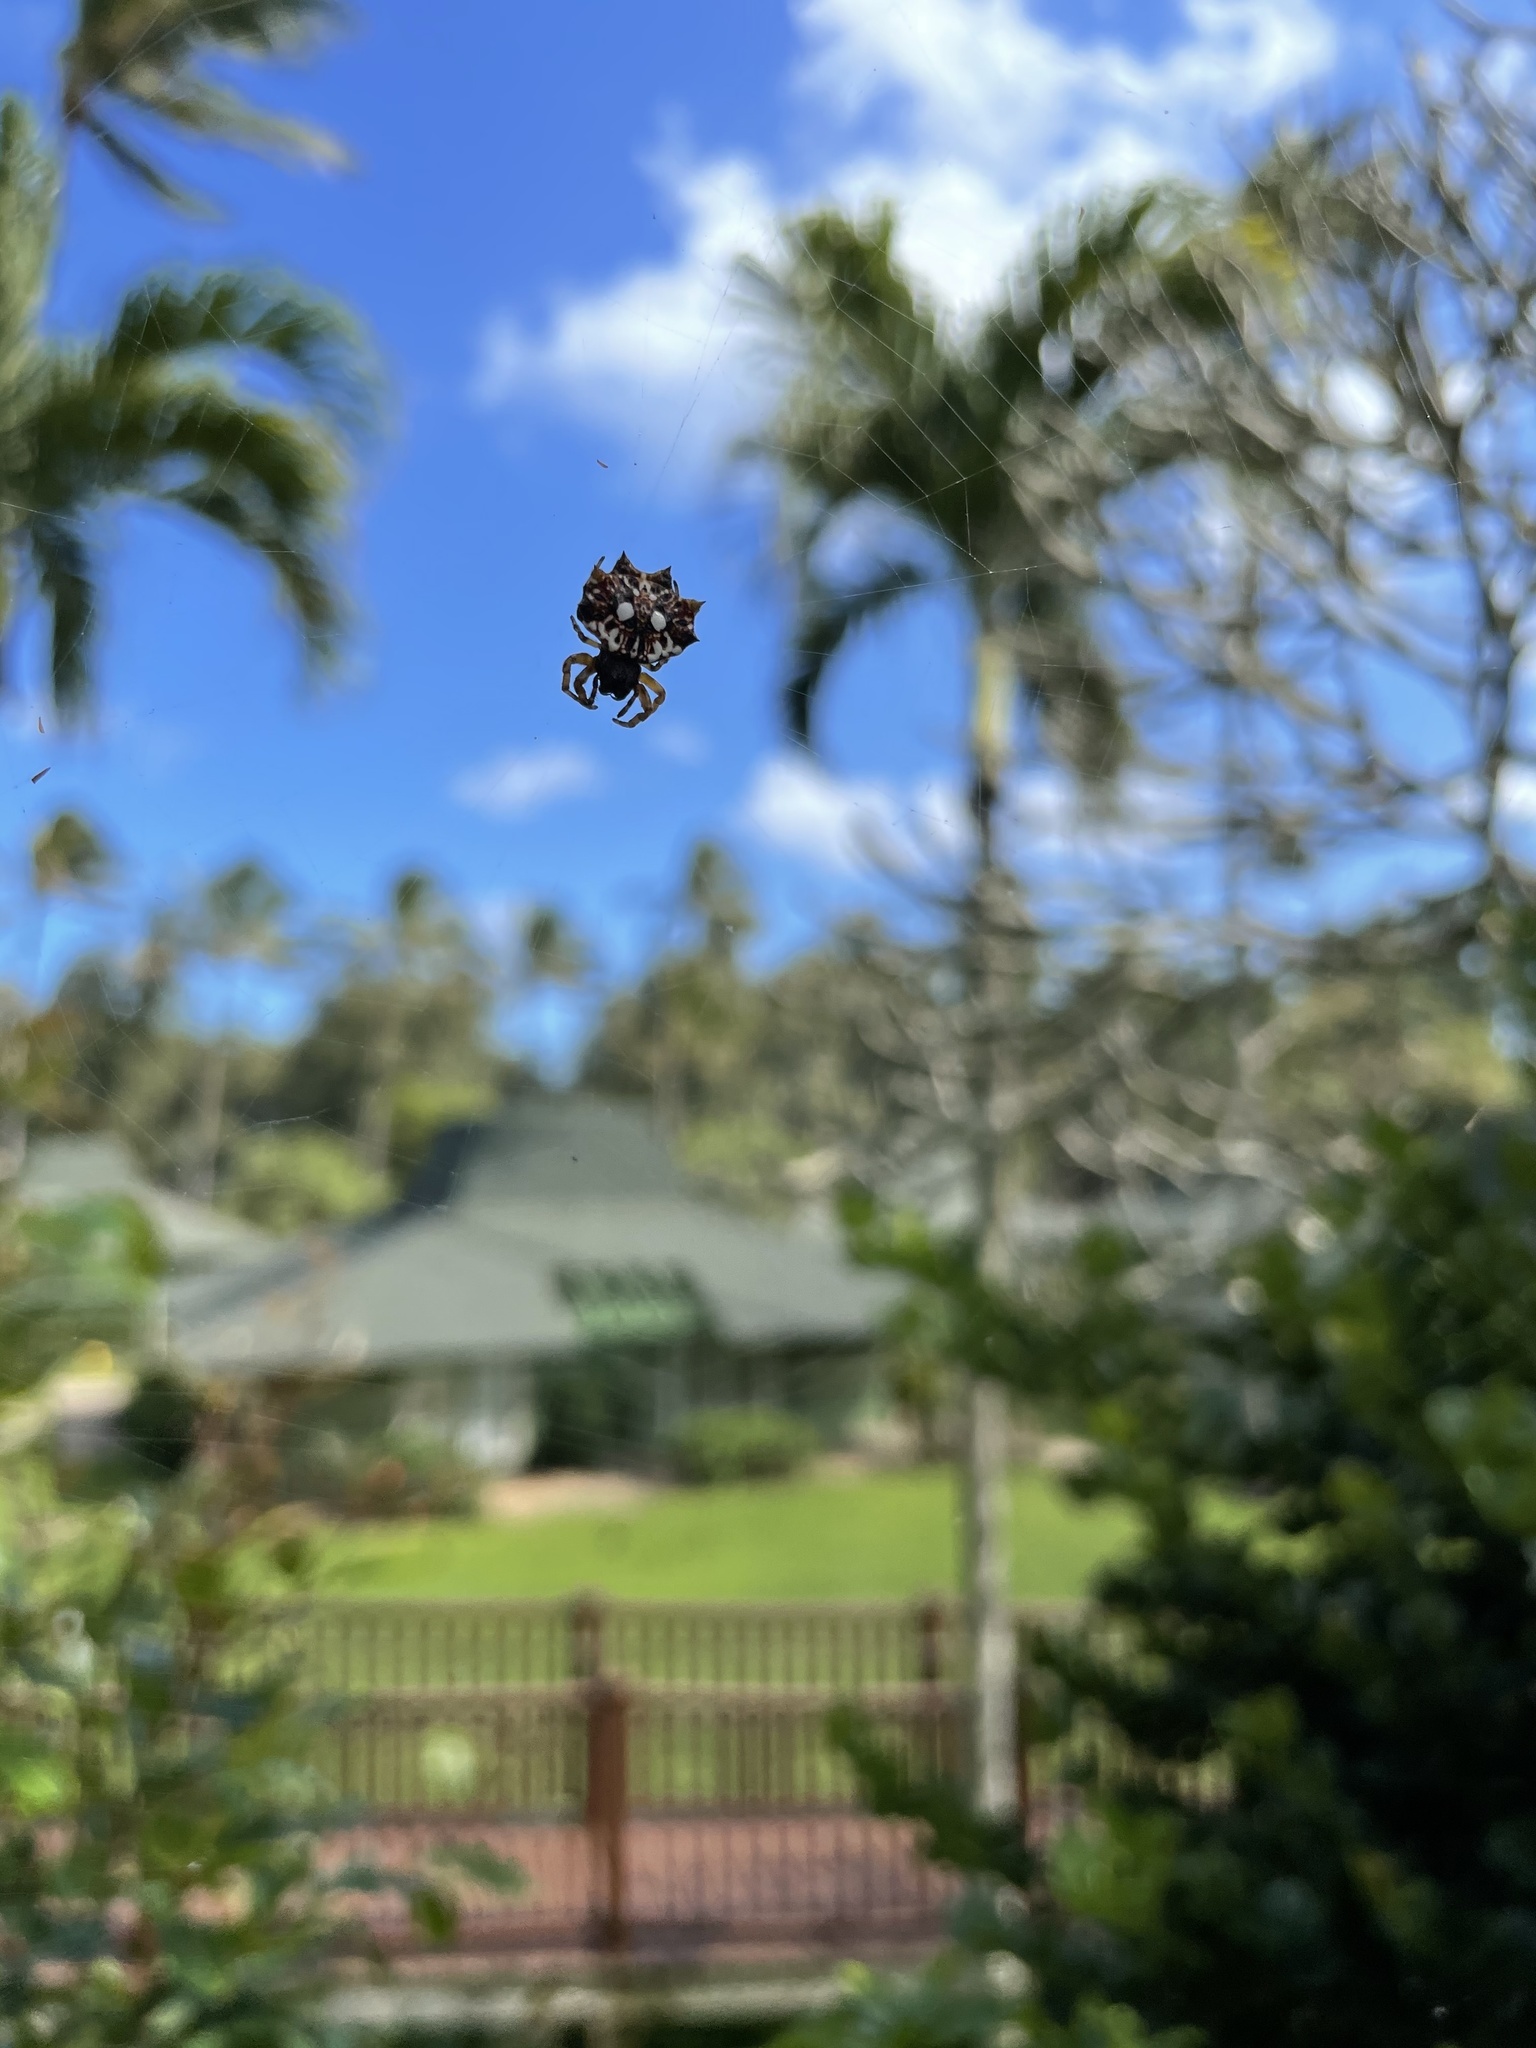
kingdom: Animalia
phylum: Arthropoda
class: Arachnida
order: Araneae
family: Araneidae
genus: Thelacantha
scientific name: Thelacantha brevispina
